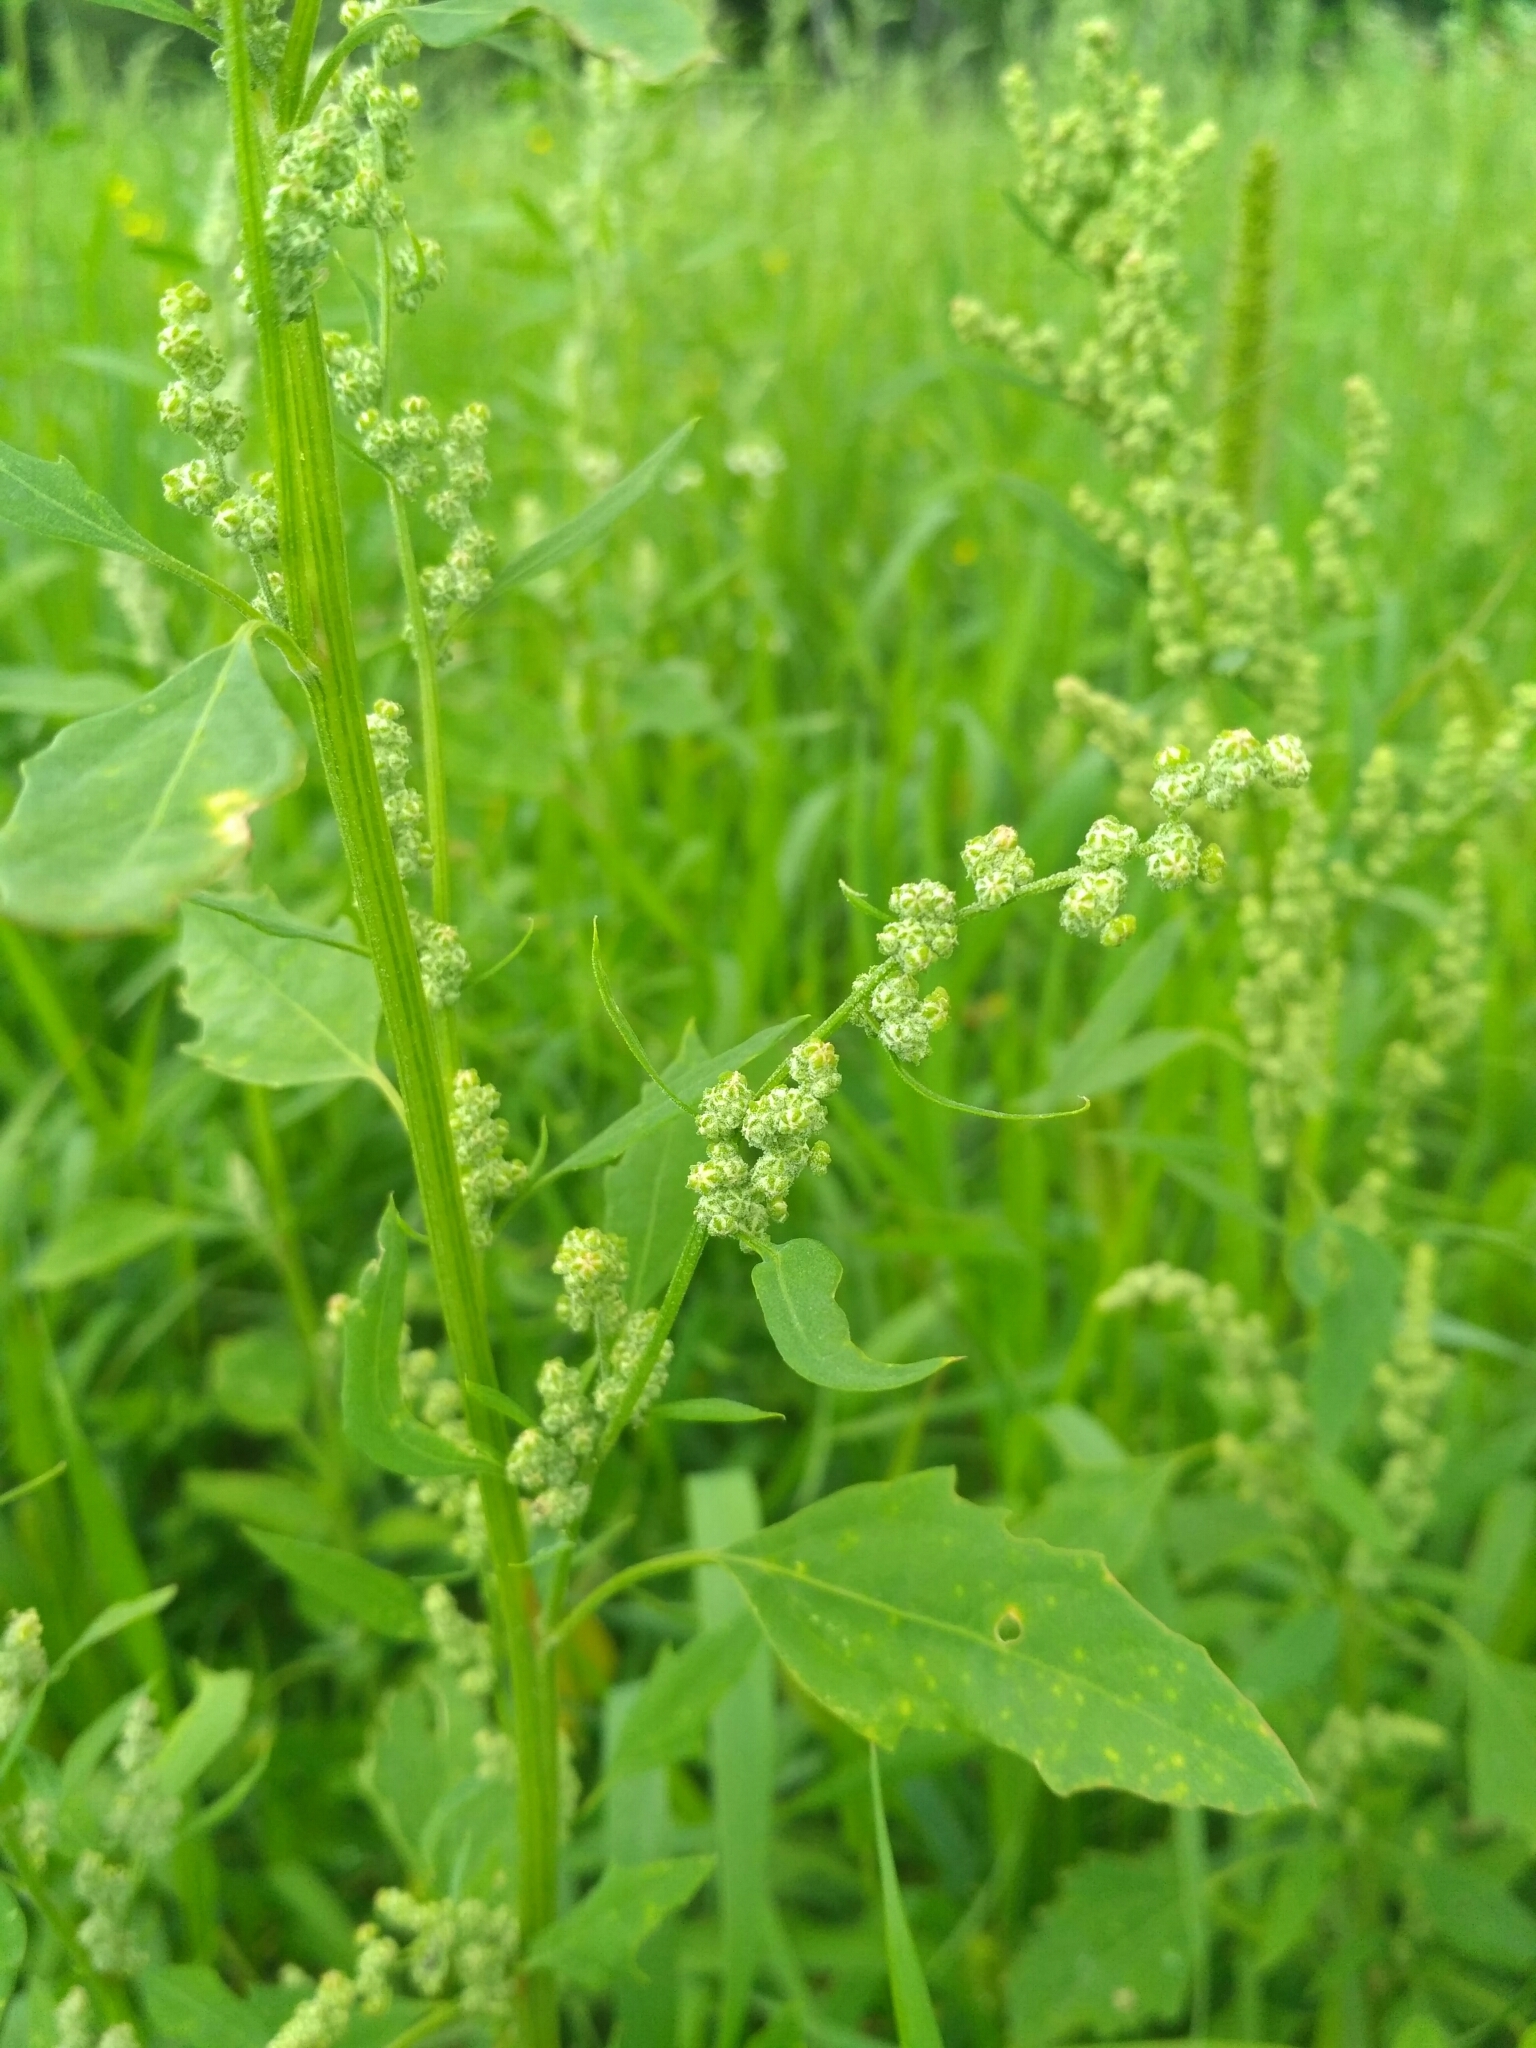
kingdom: Plantae
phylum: Tracheophyta
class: Magnoliopsida
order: Caryophyllales
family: Amaranthaceae
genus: Chenopodium
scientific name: Chenopodium album
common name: Fat-hen
